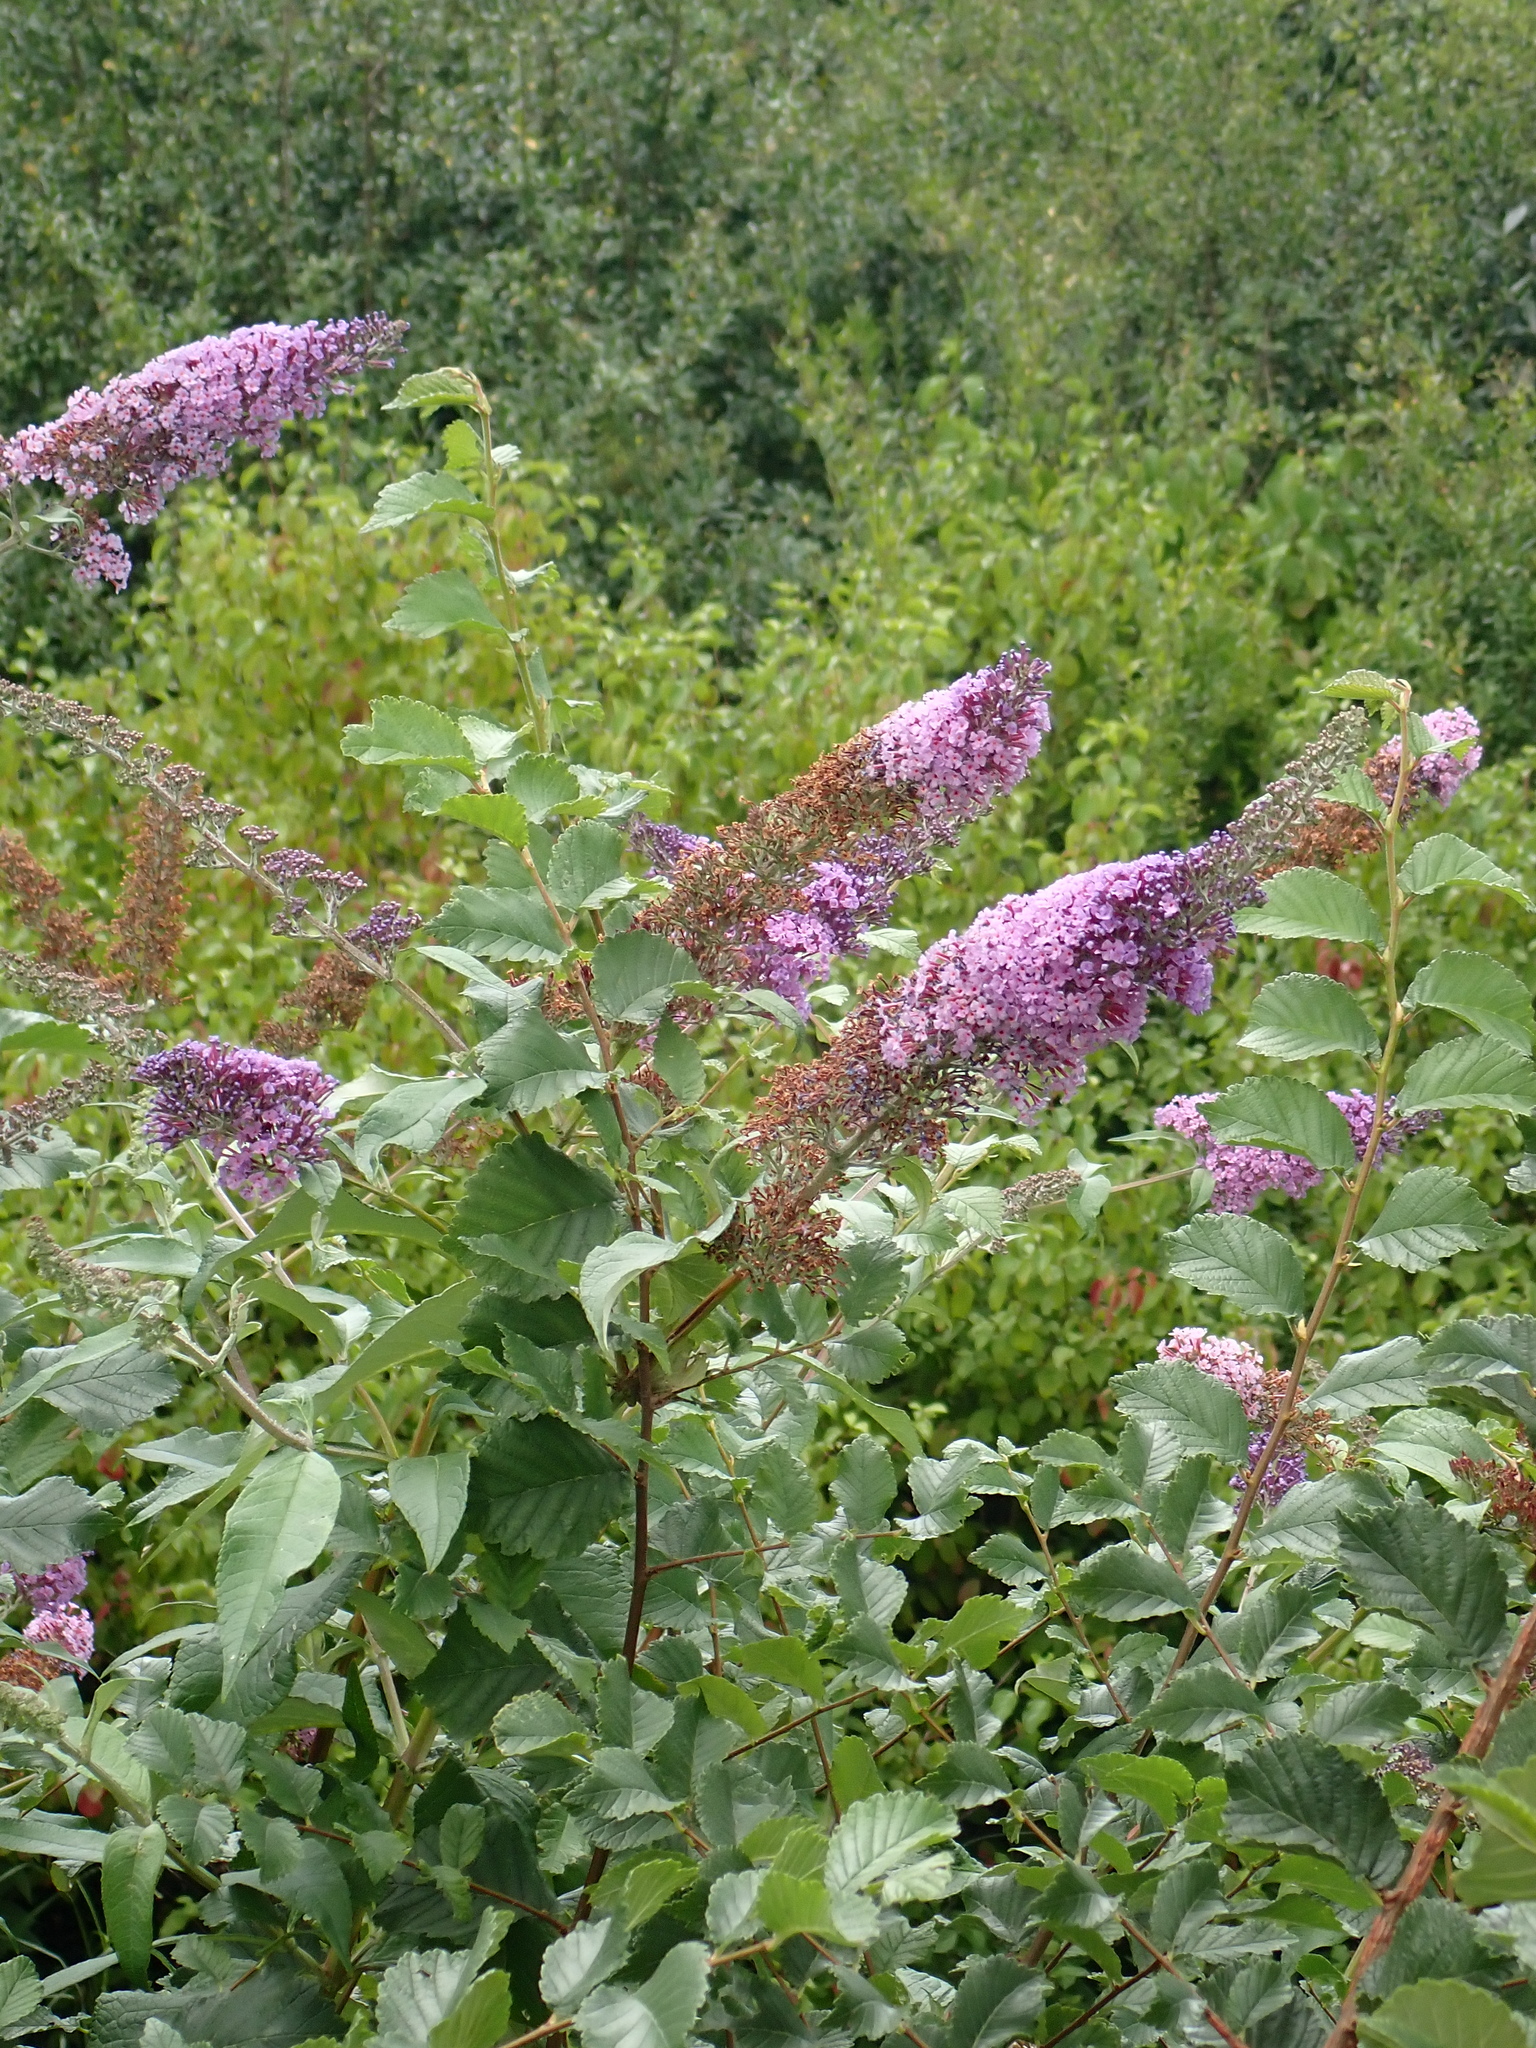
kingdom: Plantae
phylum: Tracheophyta
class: Magnoliopsida
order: Lamiales
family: Scrophulariaceae
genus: Buddleja
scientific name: Buddleja davidii
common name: Butterfly-bush
